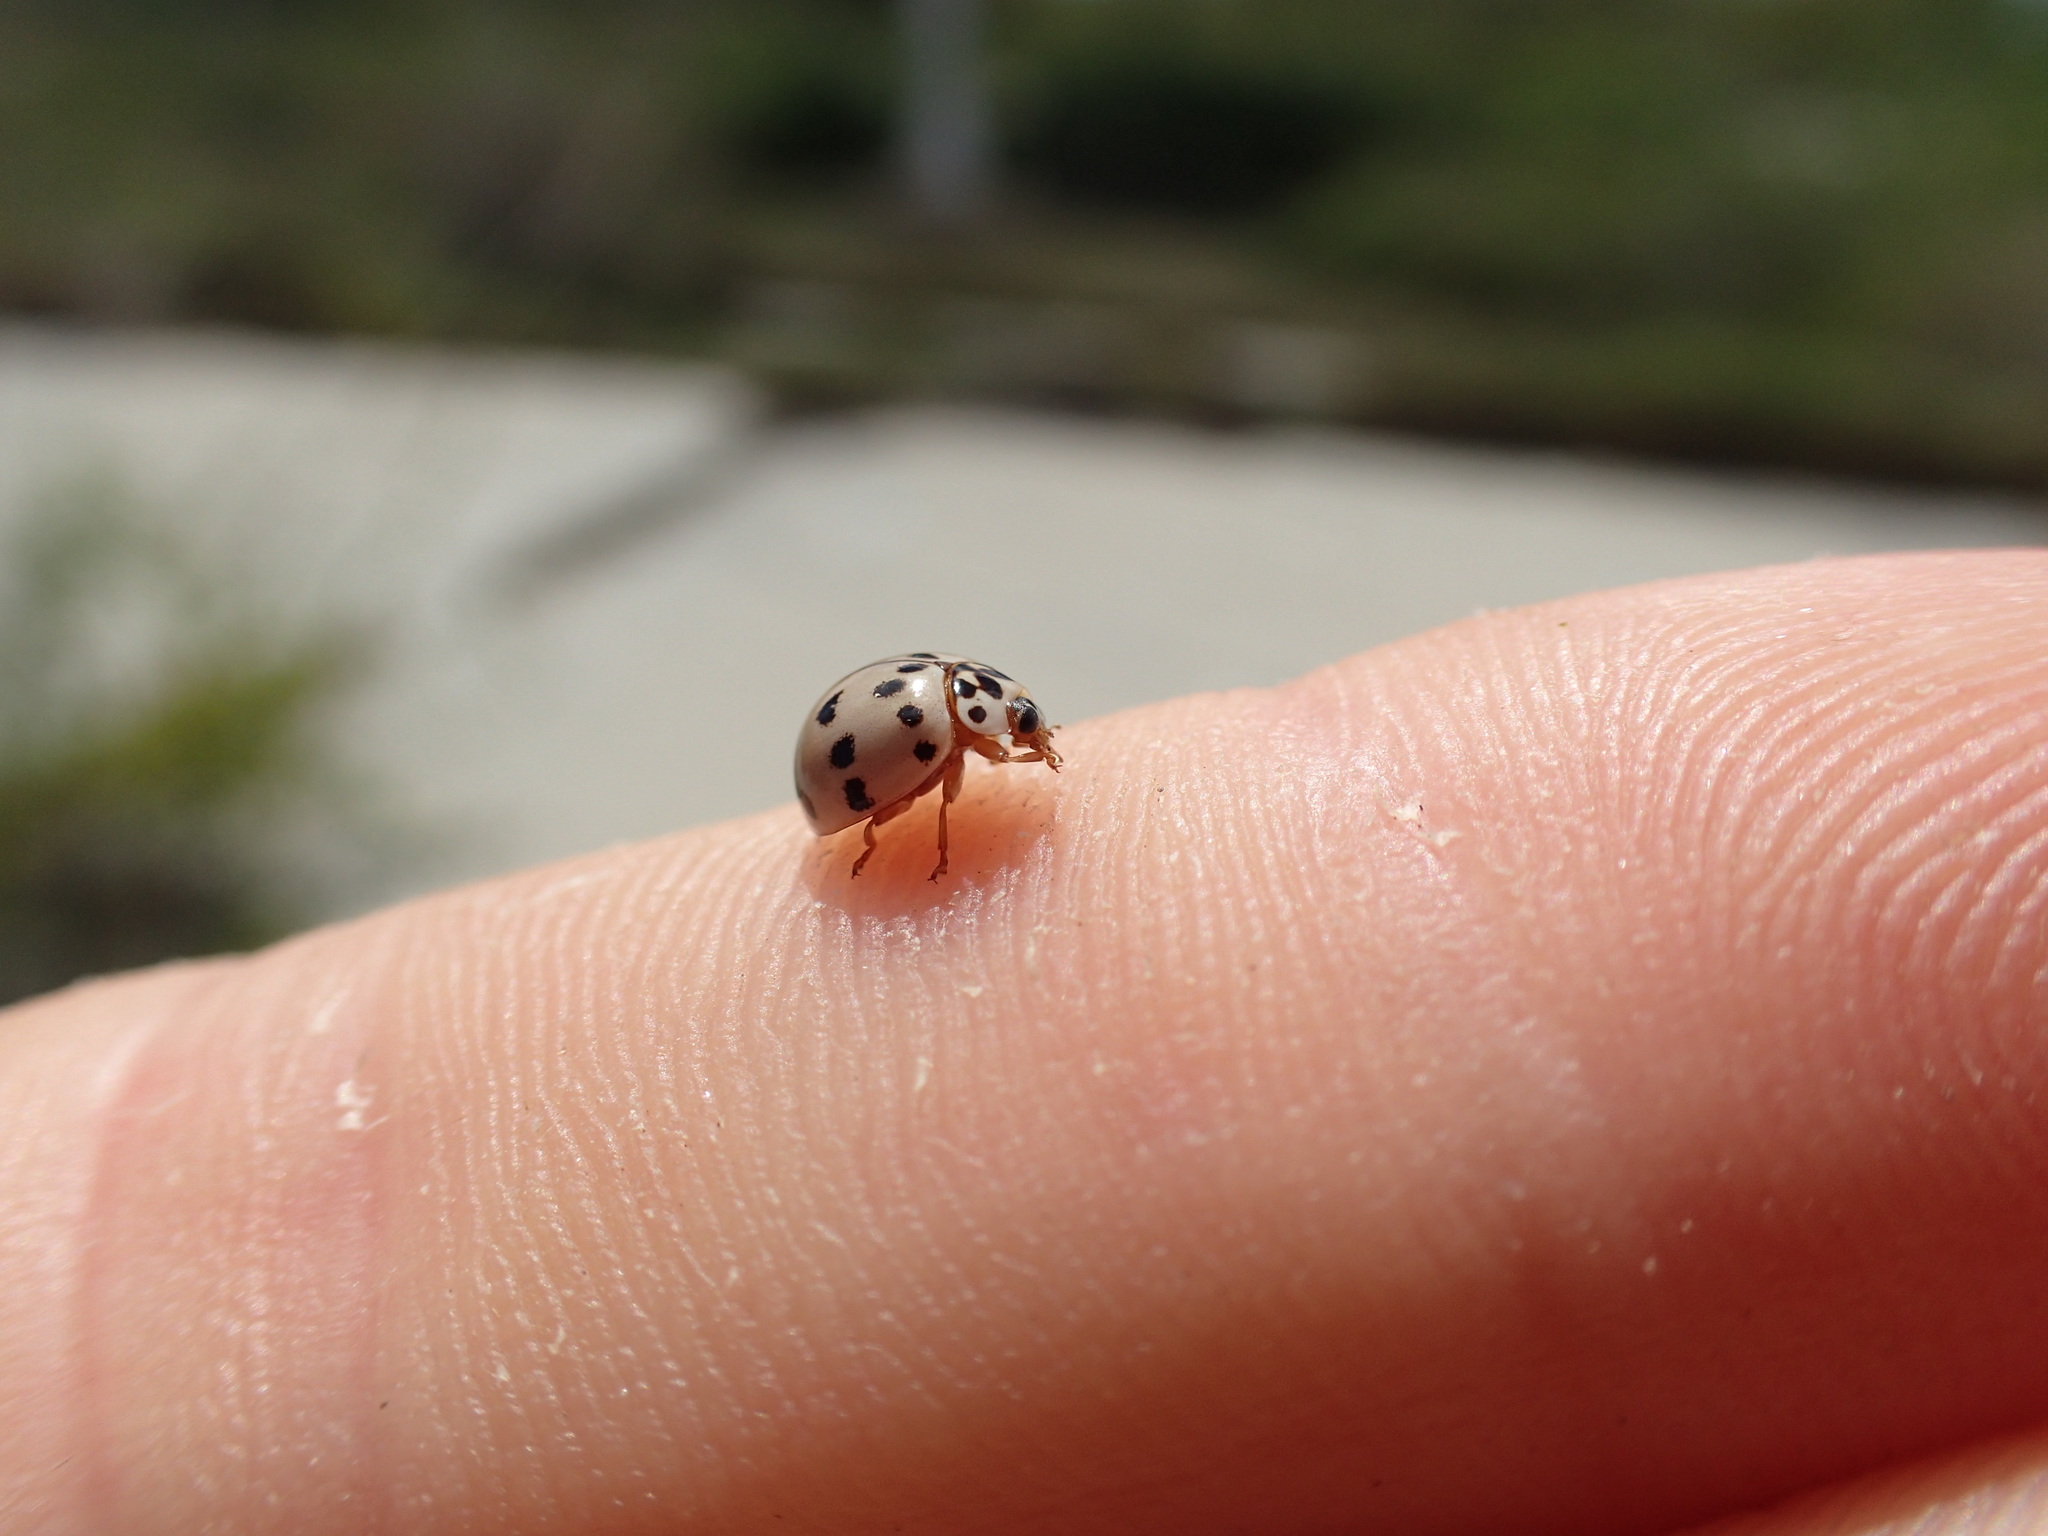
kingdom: Animalia
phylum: Arthropoda
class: Insecta
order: Coleoptera
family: Coccinellidae
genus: Olla
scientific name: Olla v-nigrum
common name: Ashy gray lady beetle
